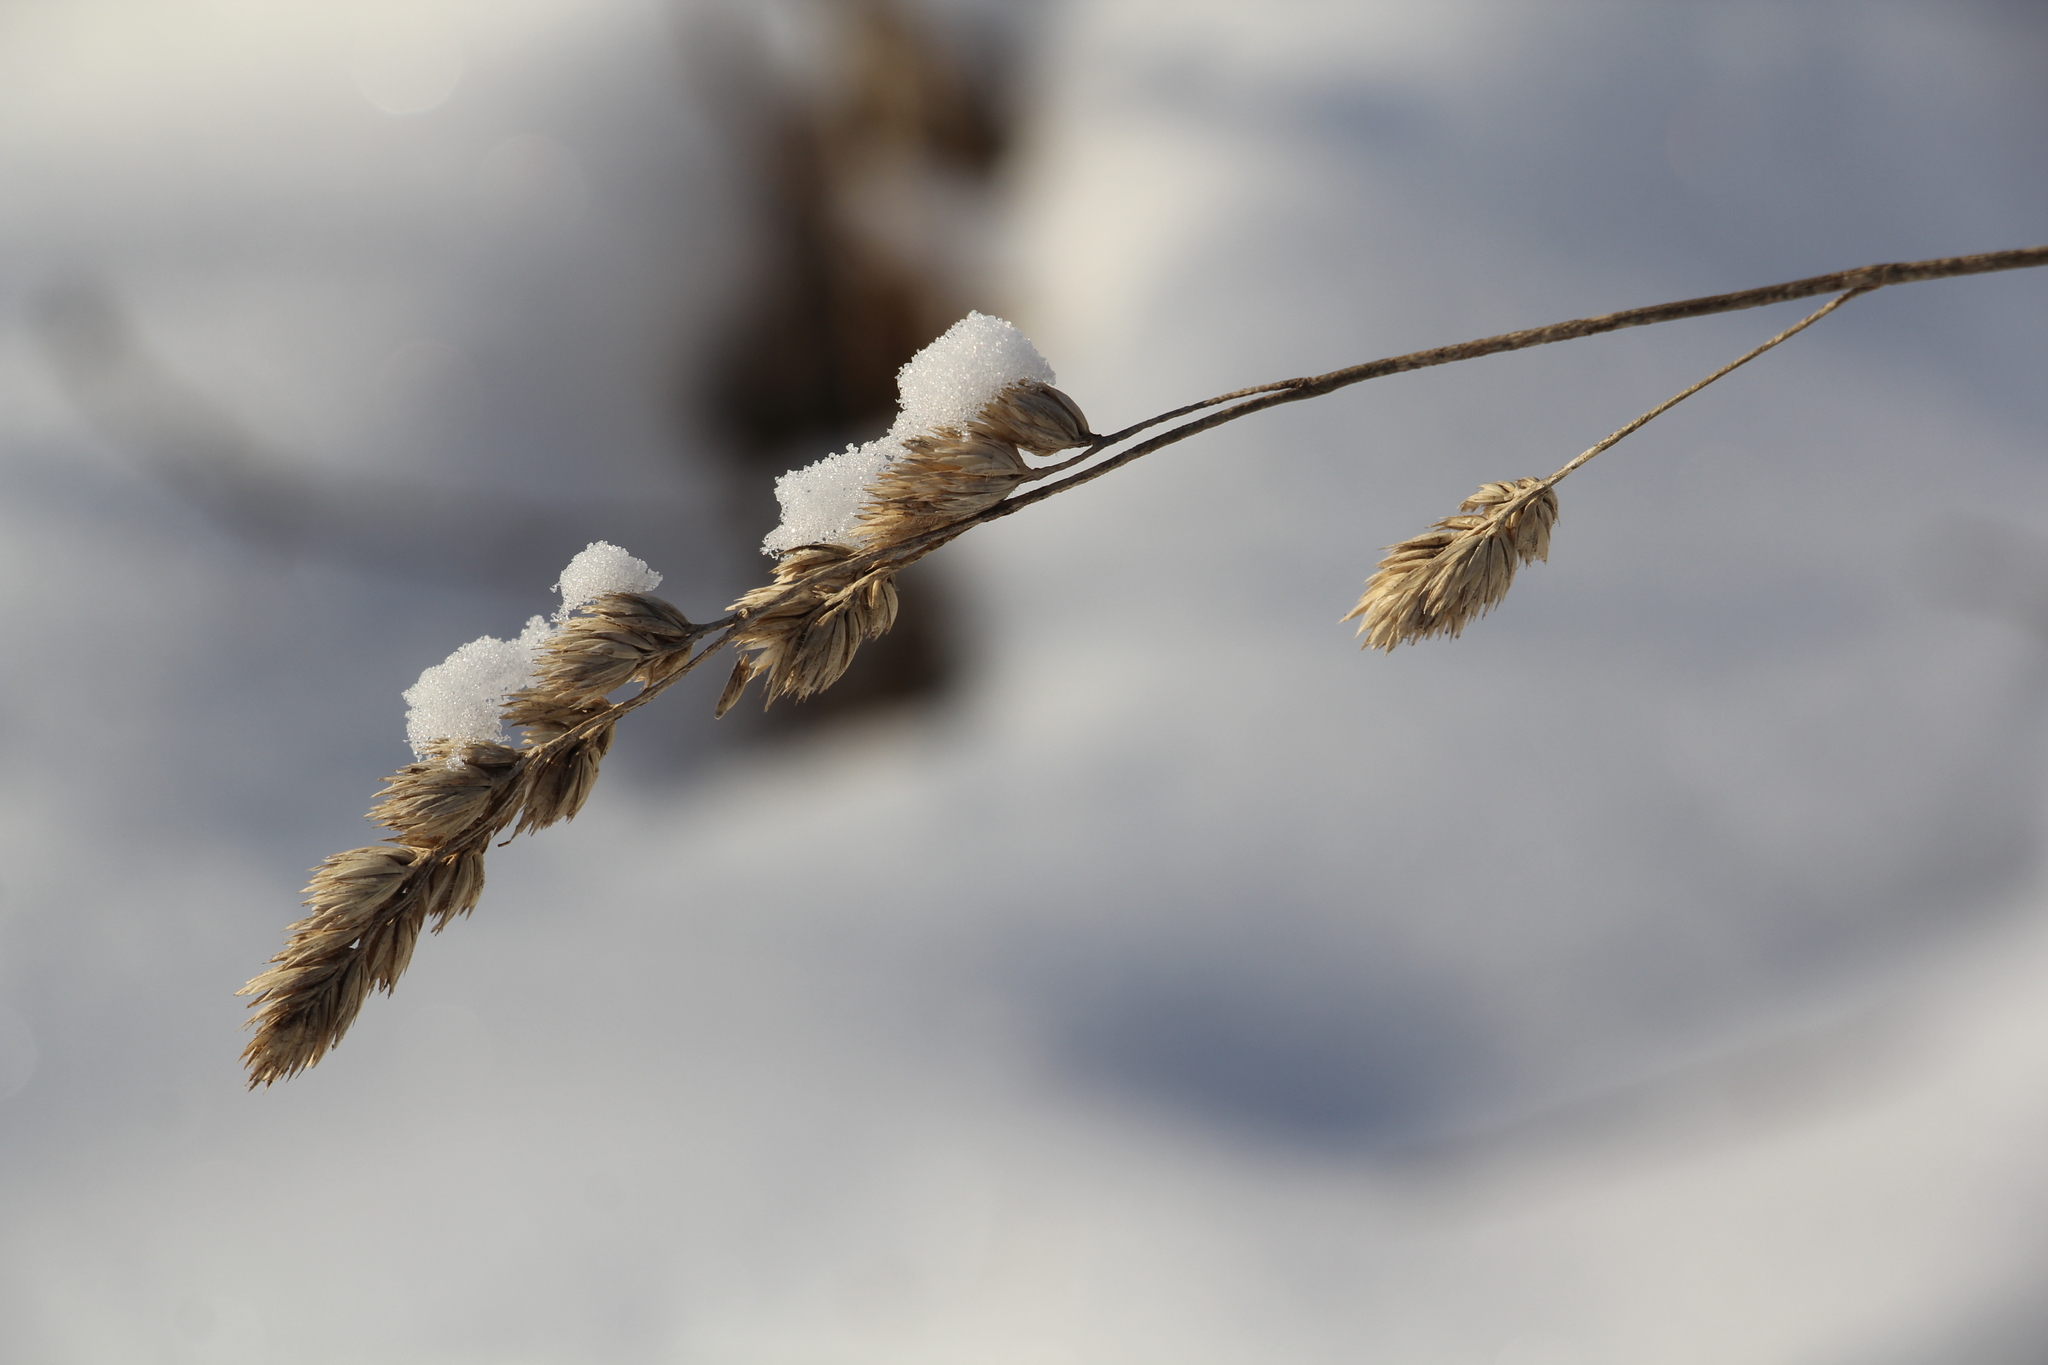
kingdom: Plantae
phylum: Tracheophyta
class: Liliopsida
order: Poales
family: Poaceae
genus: Dactylis
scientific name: Dactylis glomerata
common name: Orchardgrass
